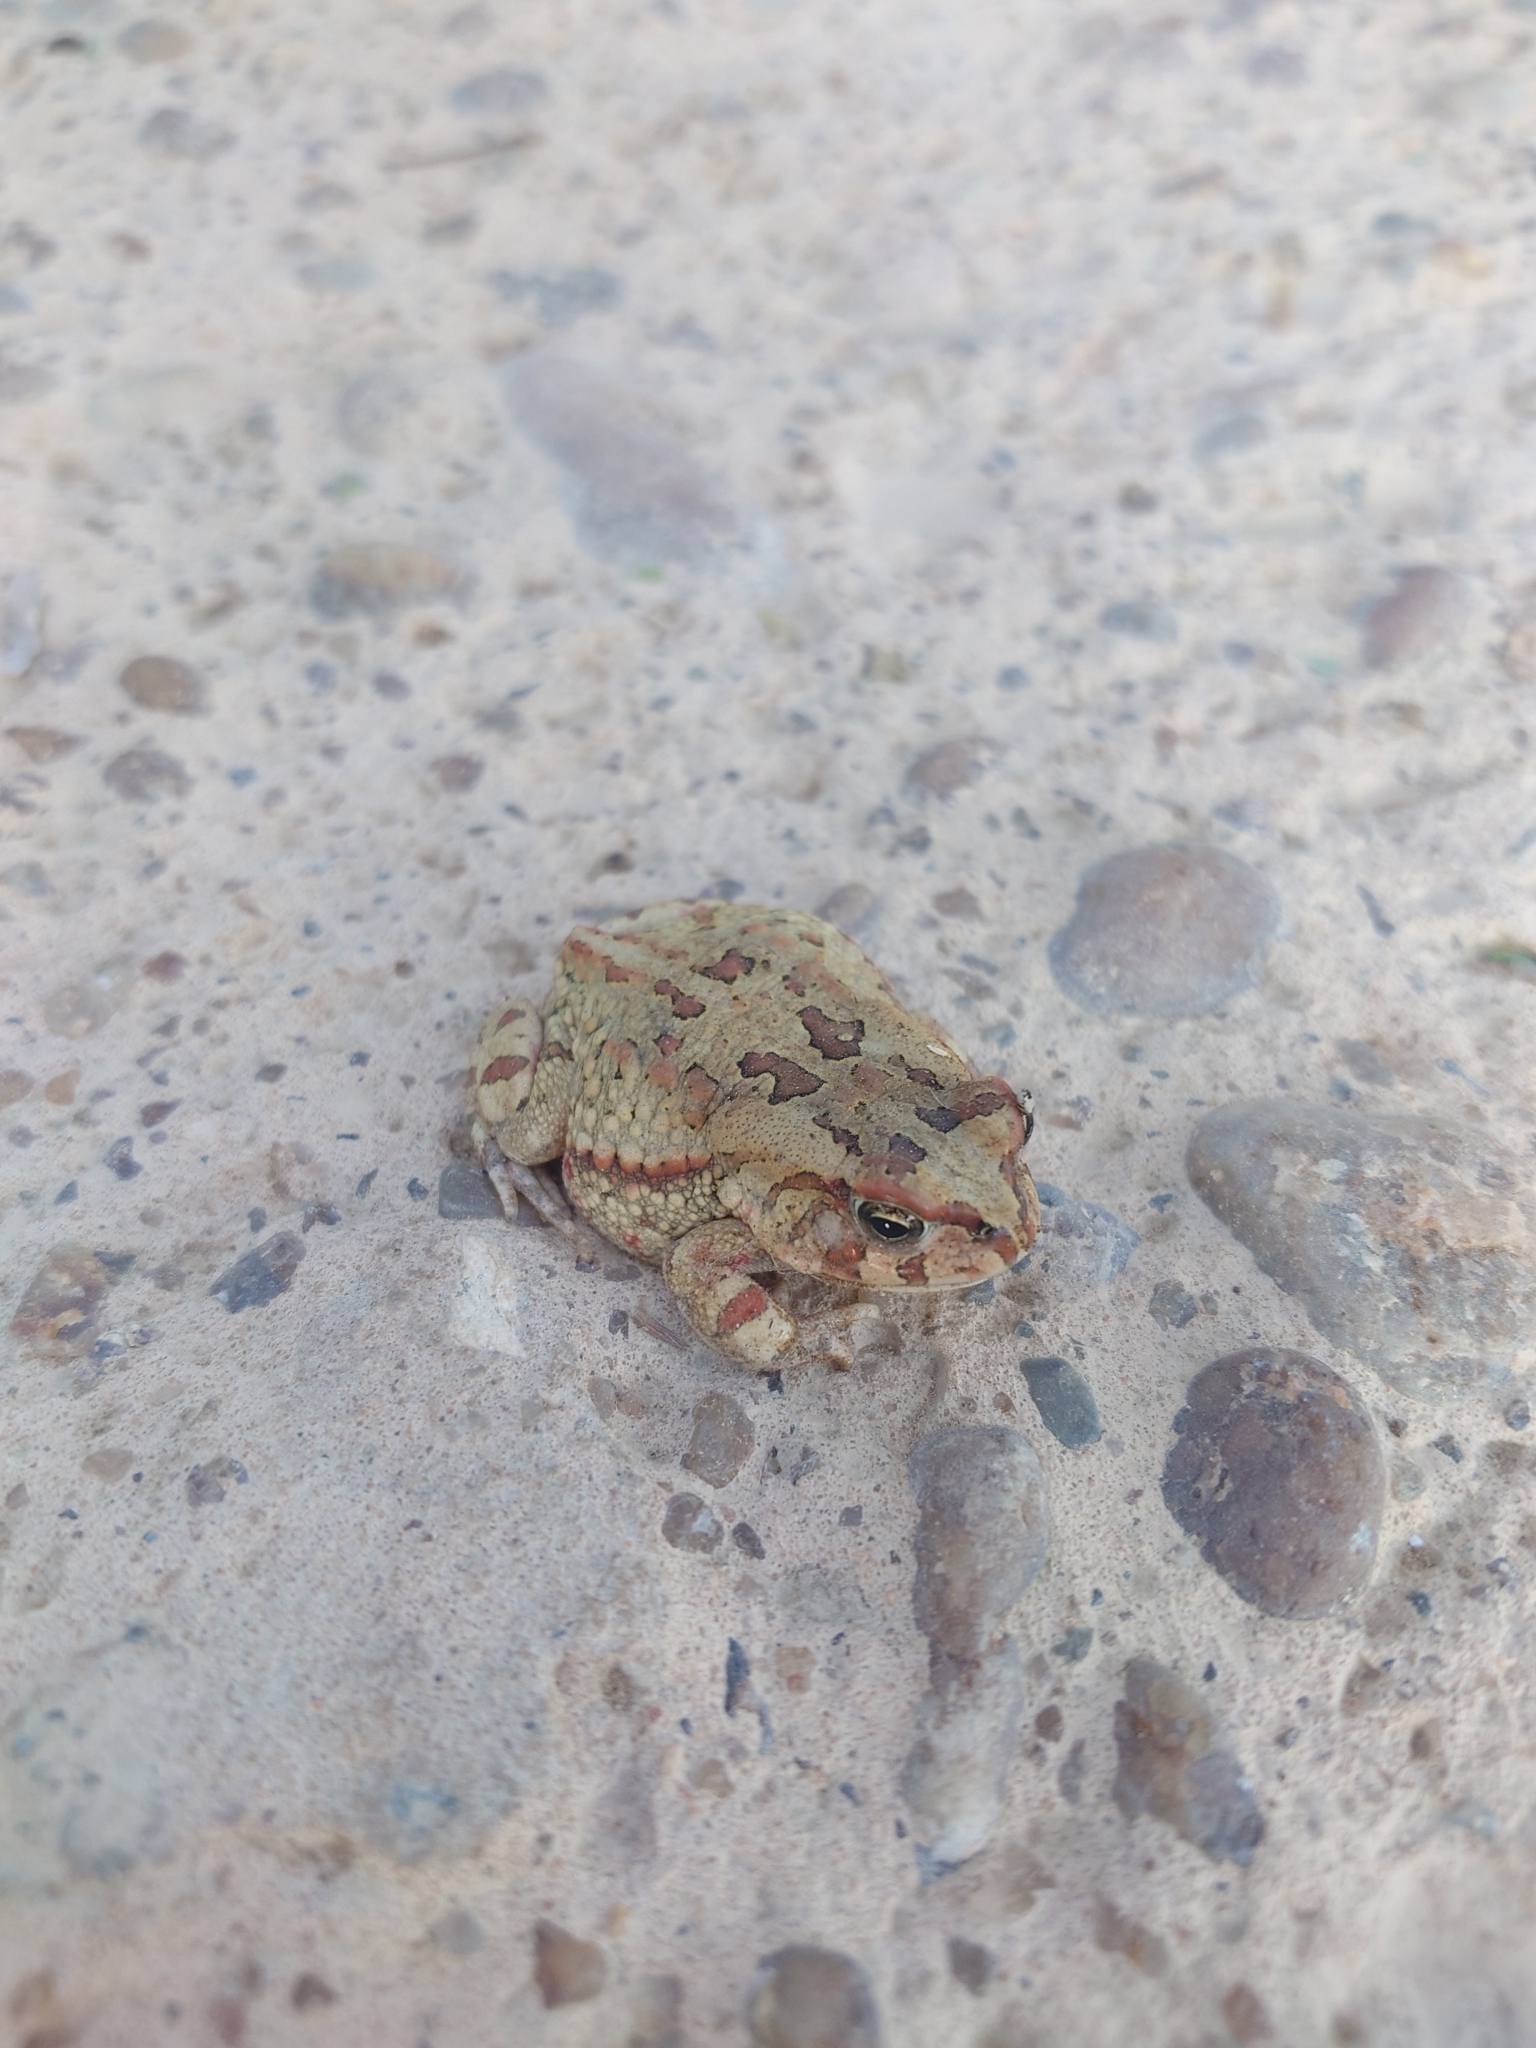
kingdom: Animalia
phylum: Chordata
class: Amphibia
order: Anura
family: Bufonidae
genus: Sclerophrys
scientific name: Sclerophrys poweri
